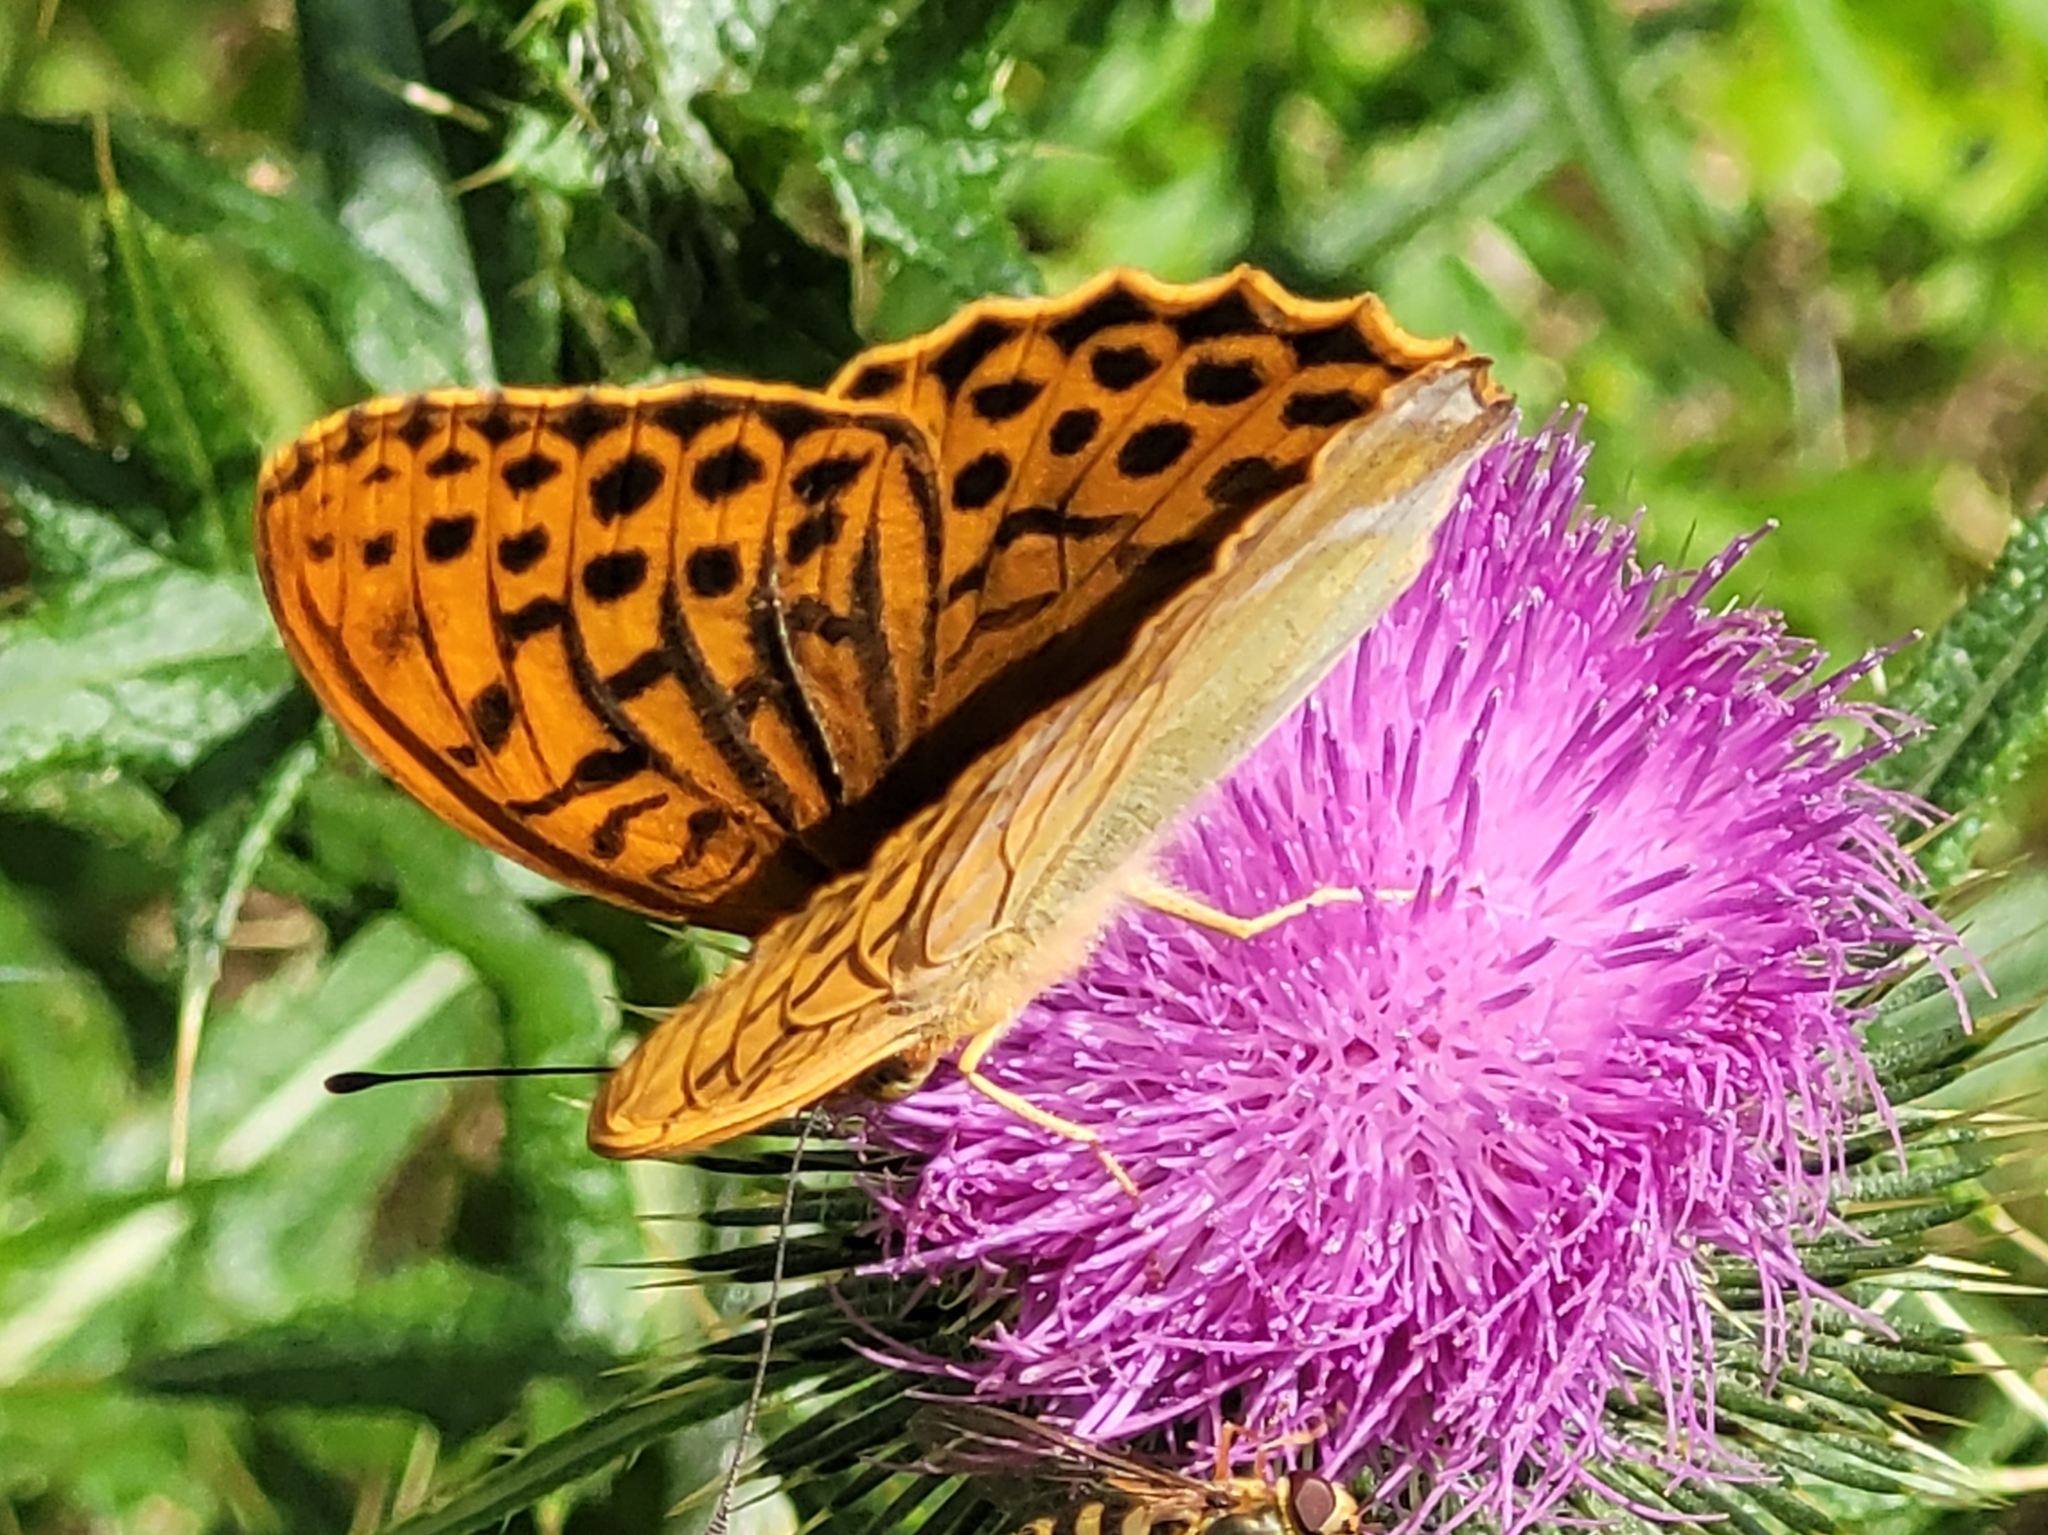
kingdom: Animalia
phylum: Arthropoda
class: Insecta
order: Lepidoptera
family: Nymphalidae
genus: Argynnis
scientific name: Argynnis paphia
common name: Silver-washed fritillary
